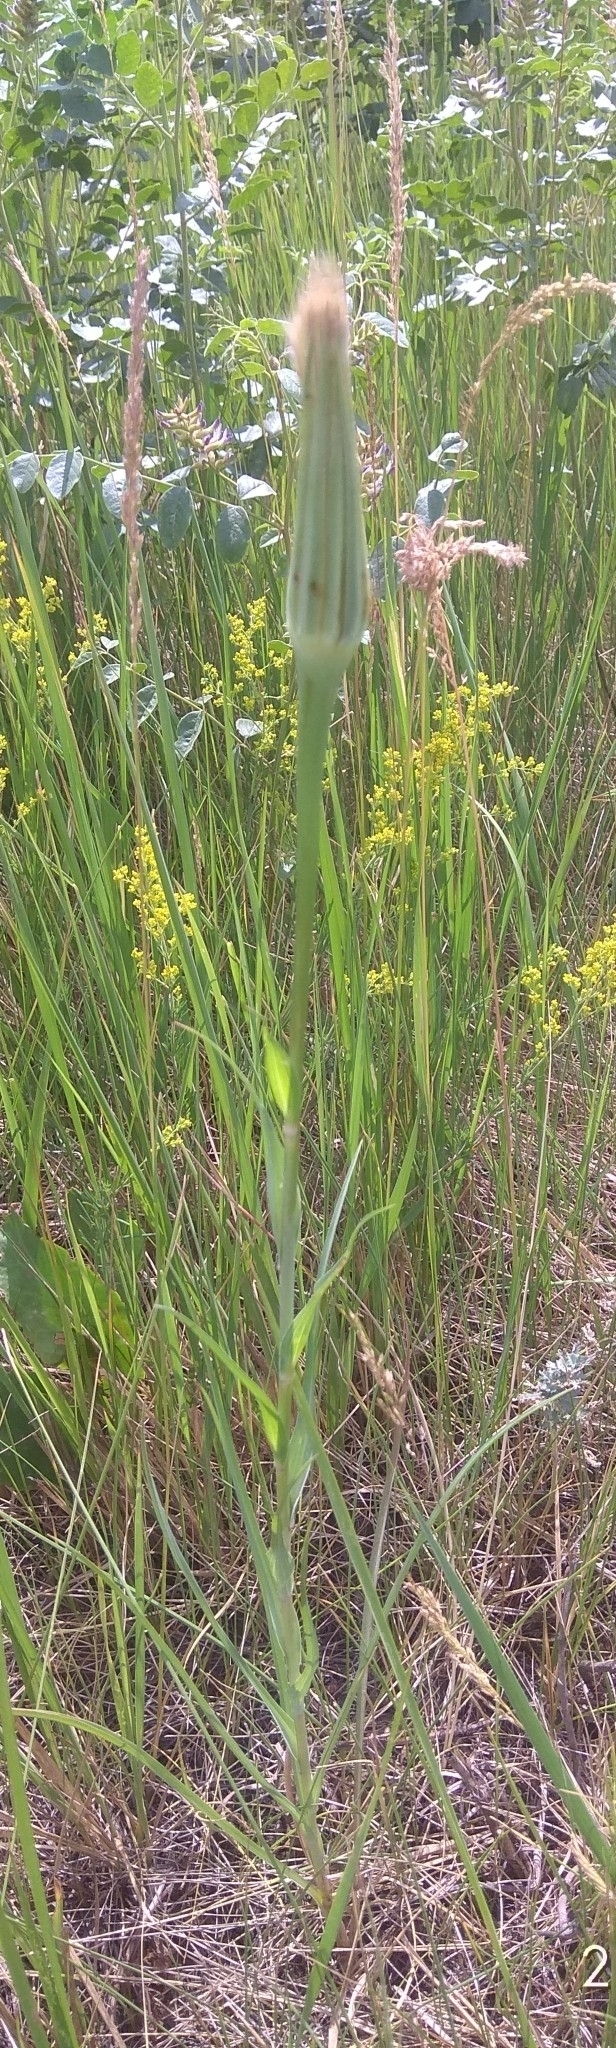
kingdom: Plantae
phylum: Tracheophyta
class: Magnoliopsida
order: Asterales
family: Asteraceae
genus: Tragopogon
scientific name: Tragopogon dubius
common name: Yellow salsify
